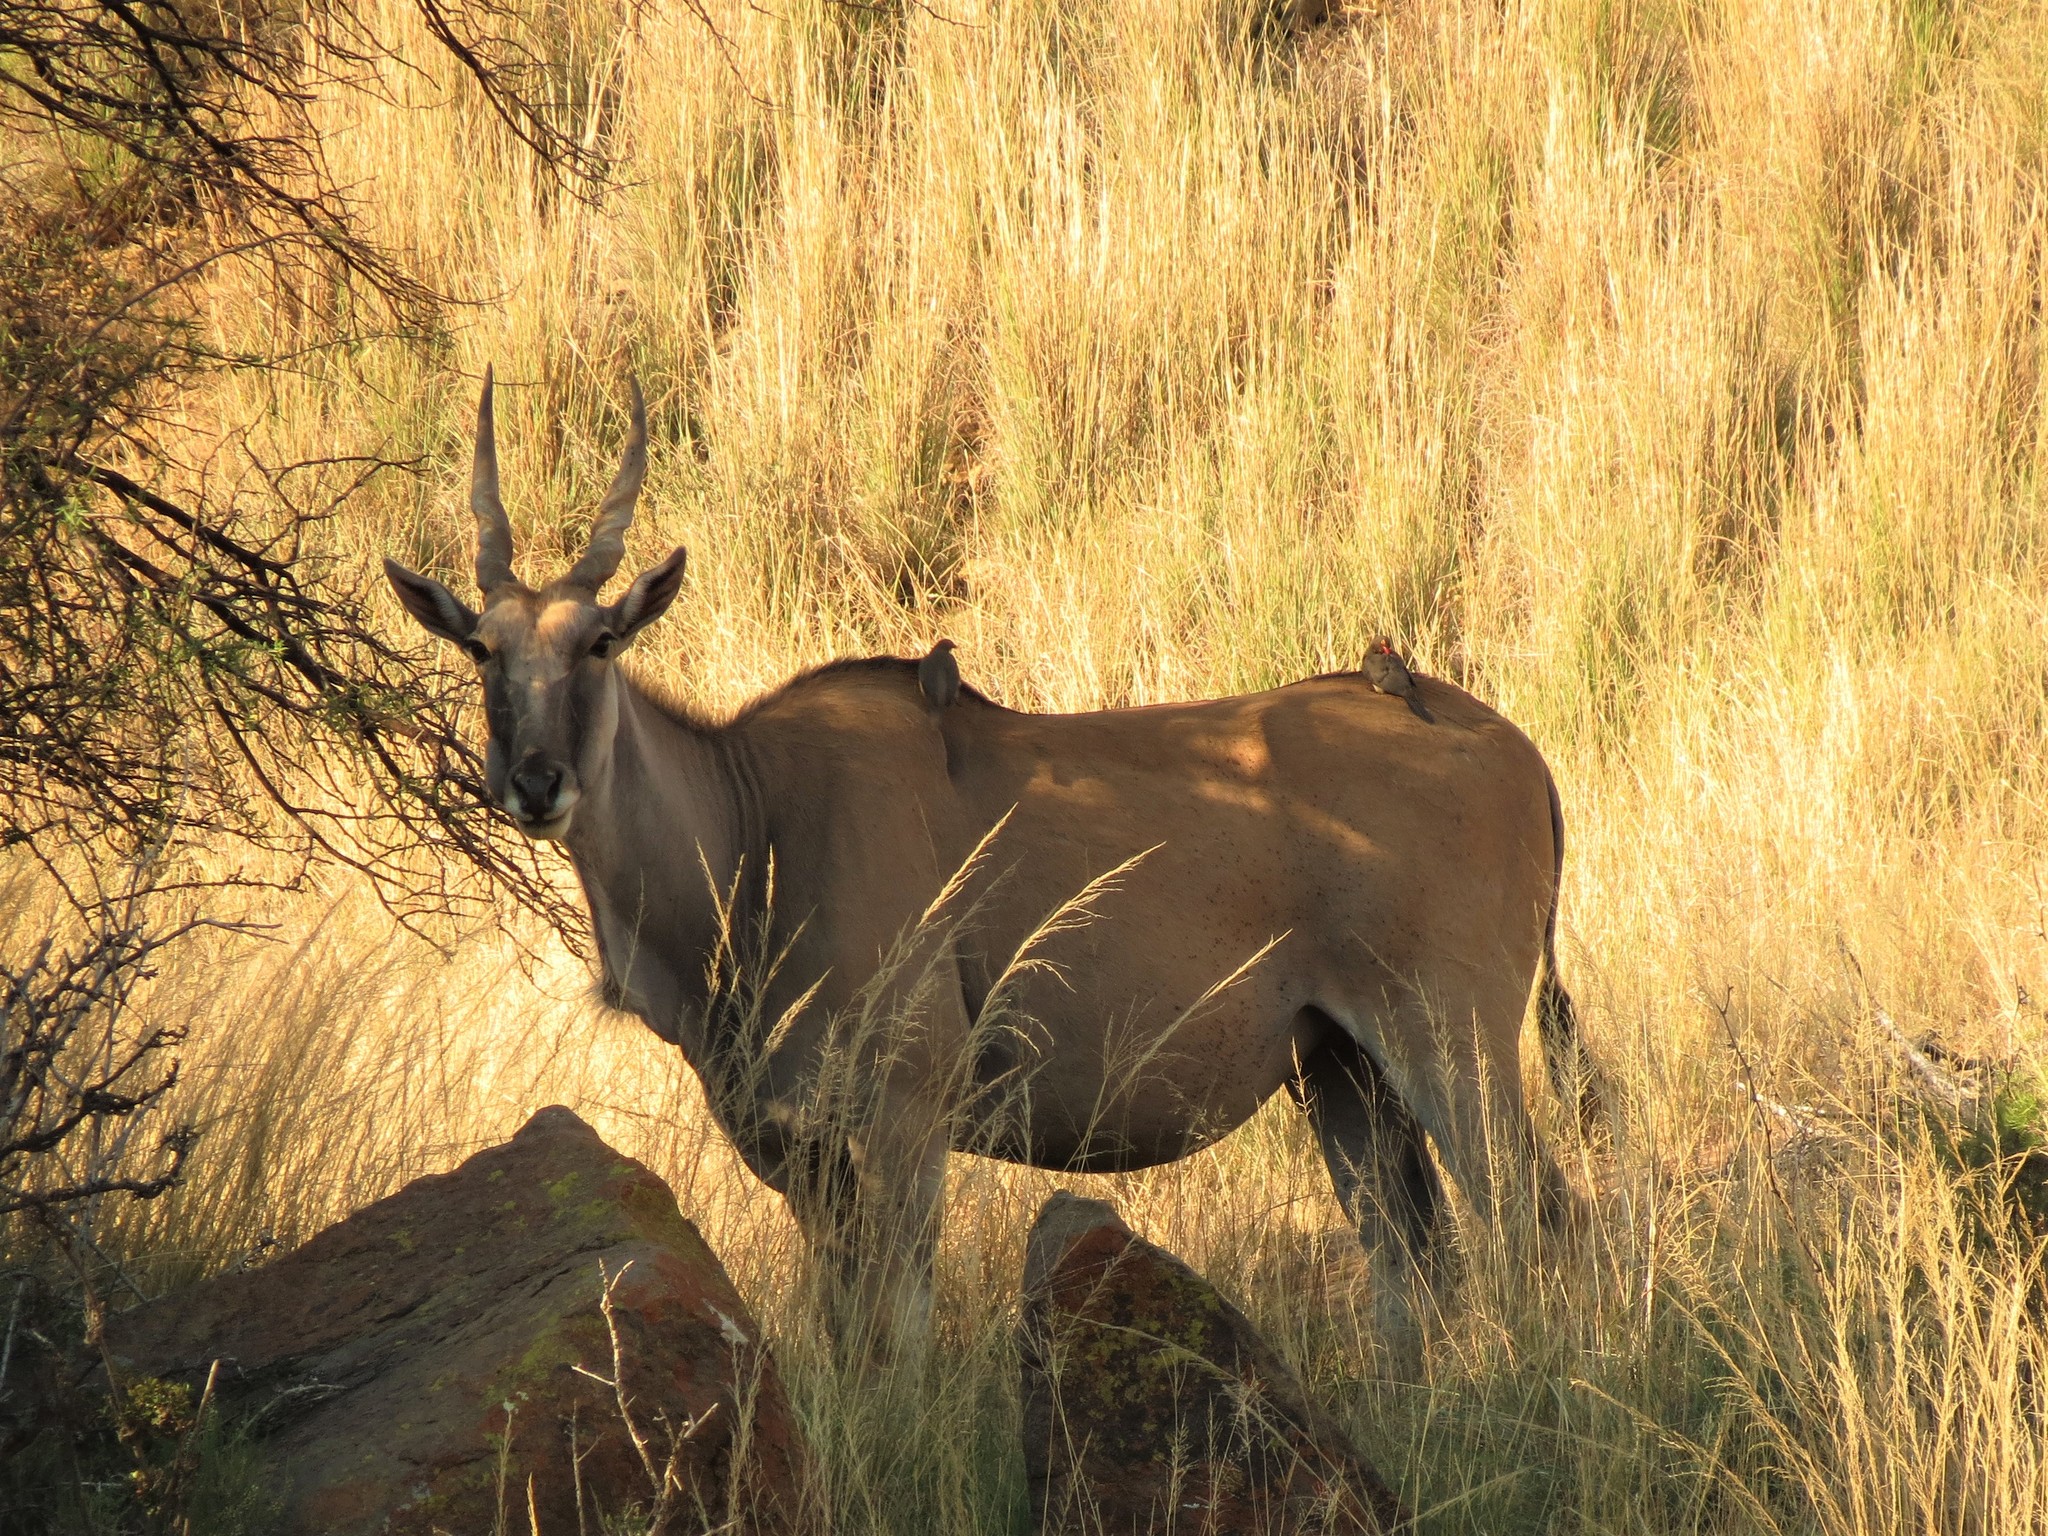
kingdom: Animalia
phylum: Chordata
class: Aves
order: Passeriformes
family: Buphagidae
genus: Buphagus
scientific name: Buphagus erythrorhynchus
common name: Red-billed oxpecker
